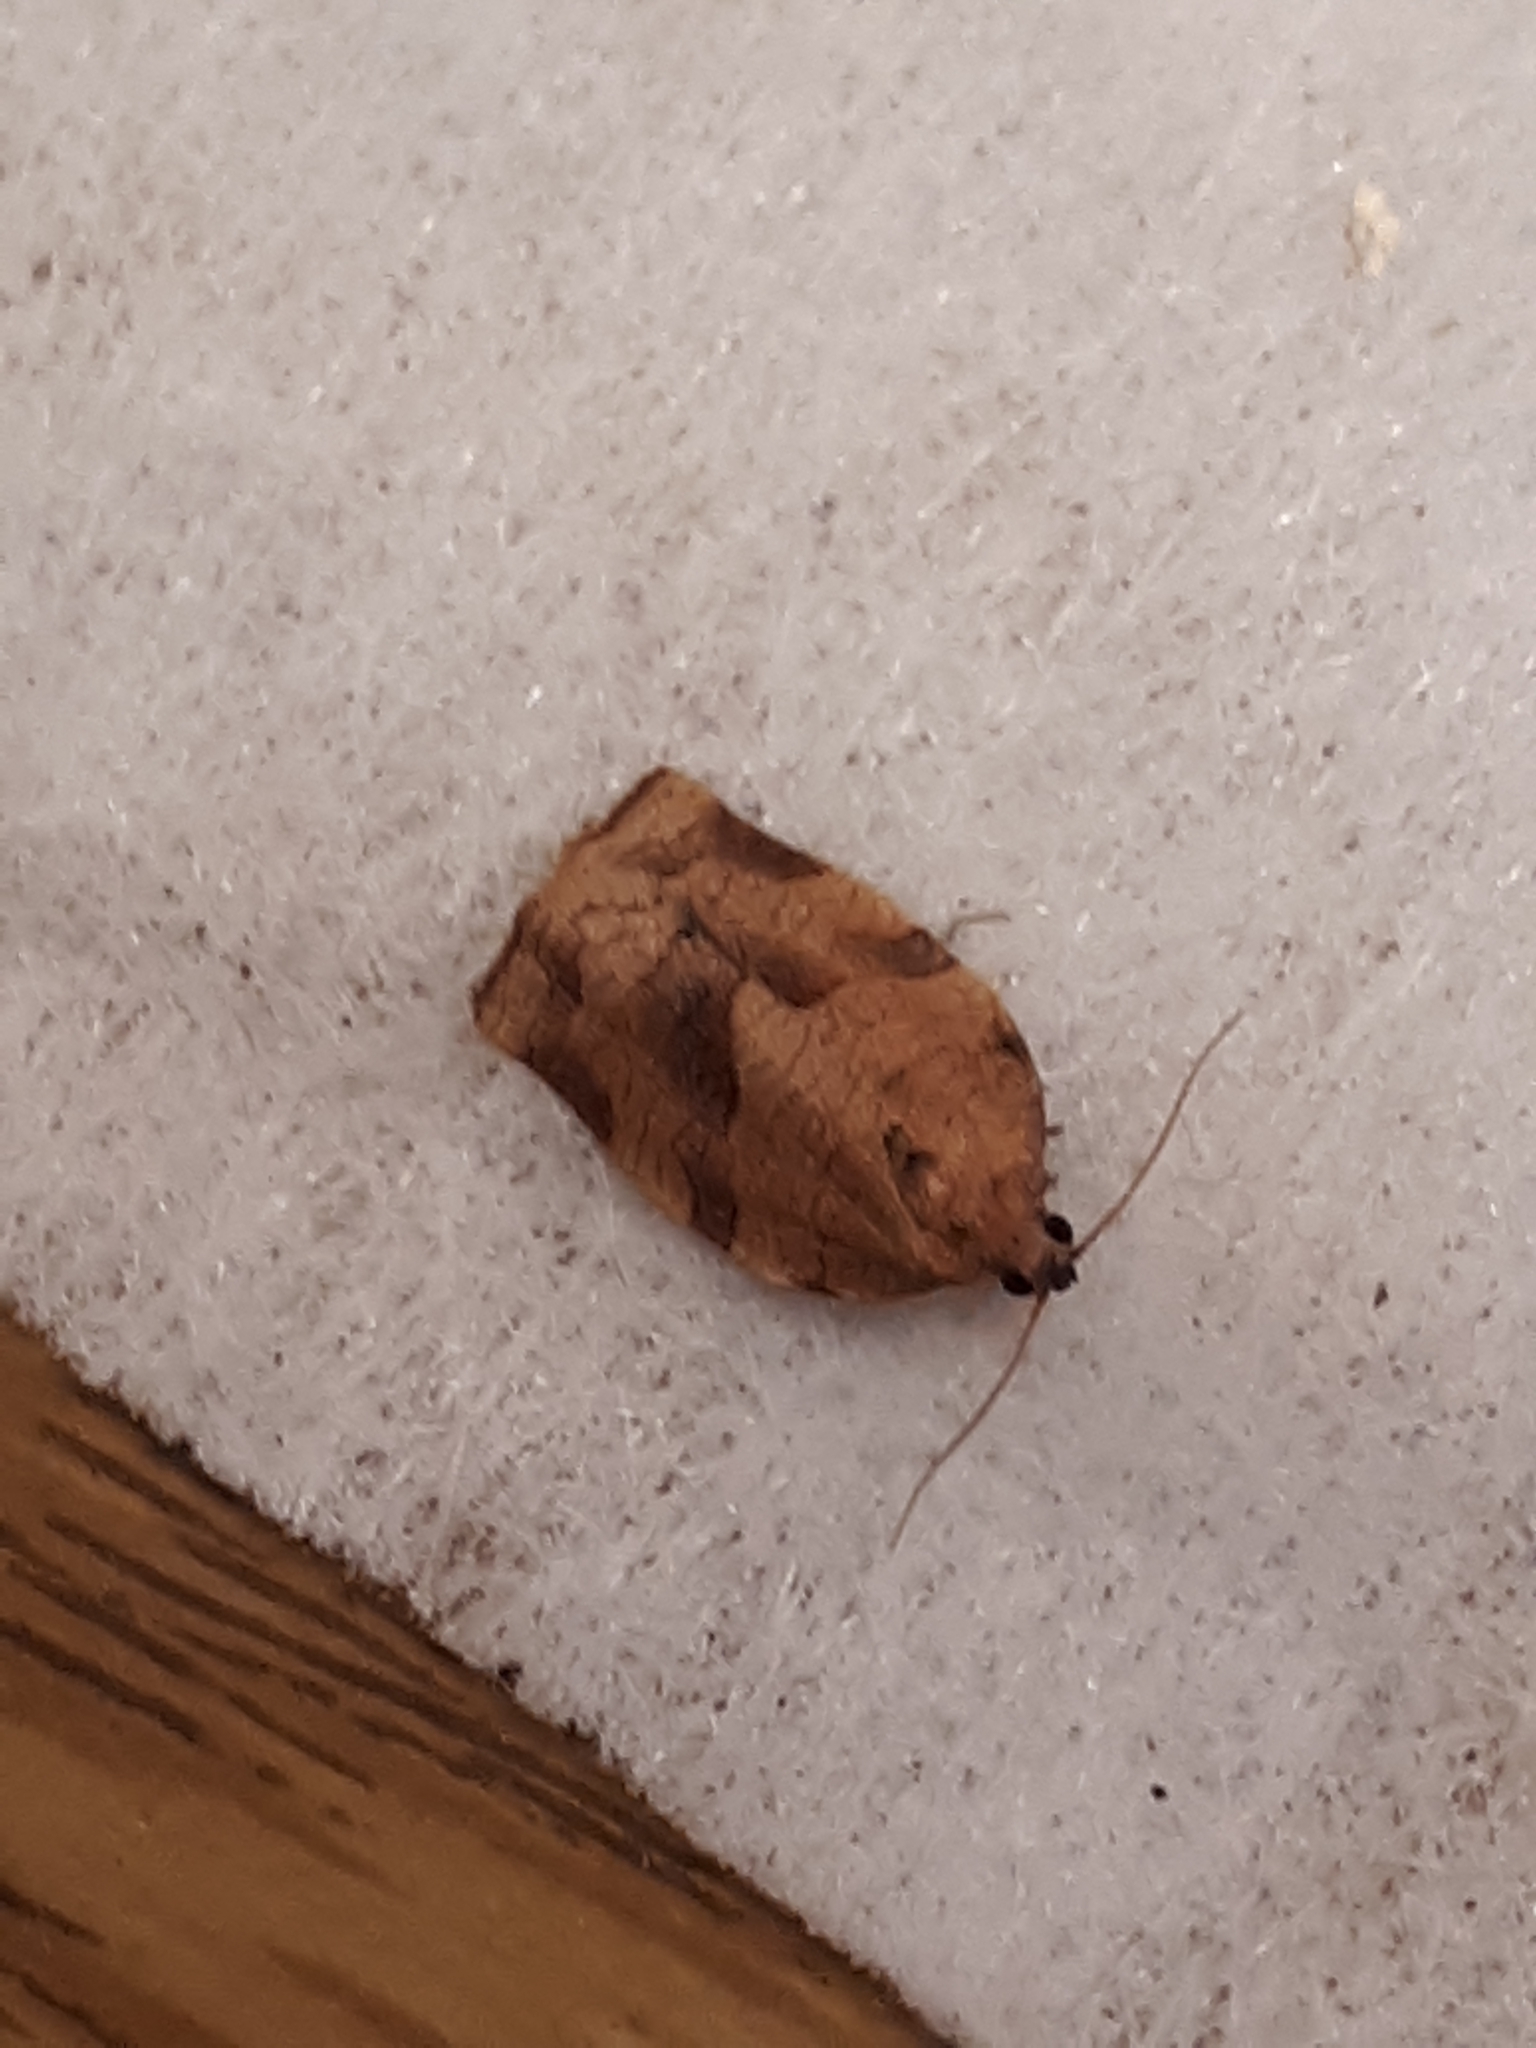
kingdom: Animalia
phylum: Arthropoda
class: Insecta
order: Lepidoptera
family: Tortricidae
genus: Choristoneura
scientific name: Choristoneura rosaceana
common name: Oblique-banded leafroller moth
